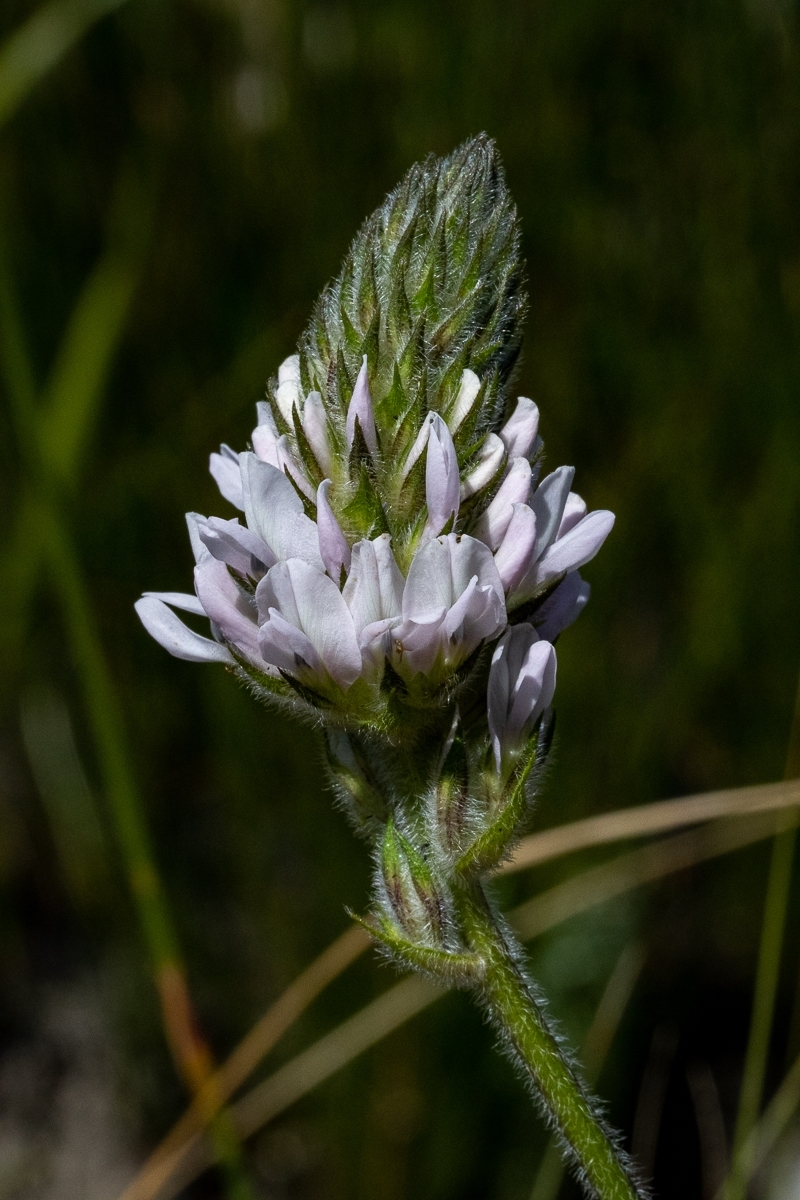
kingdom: Plantae
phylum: Tracheophyta
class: Magnoliopsida
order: Fabales
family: Fabaceae
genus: Psoralea
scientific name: Psoralea zeyheri
